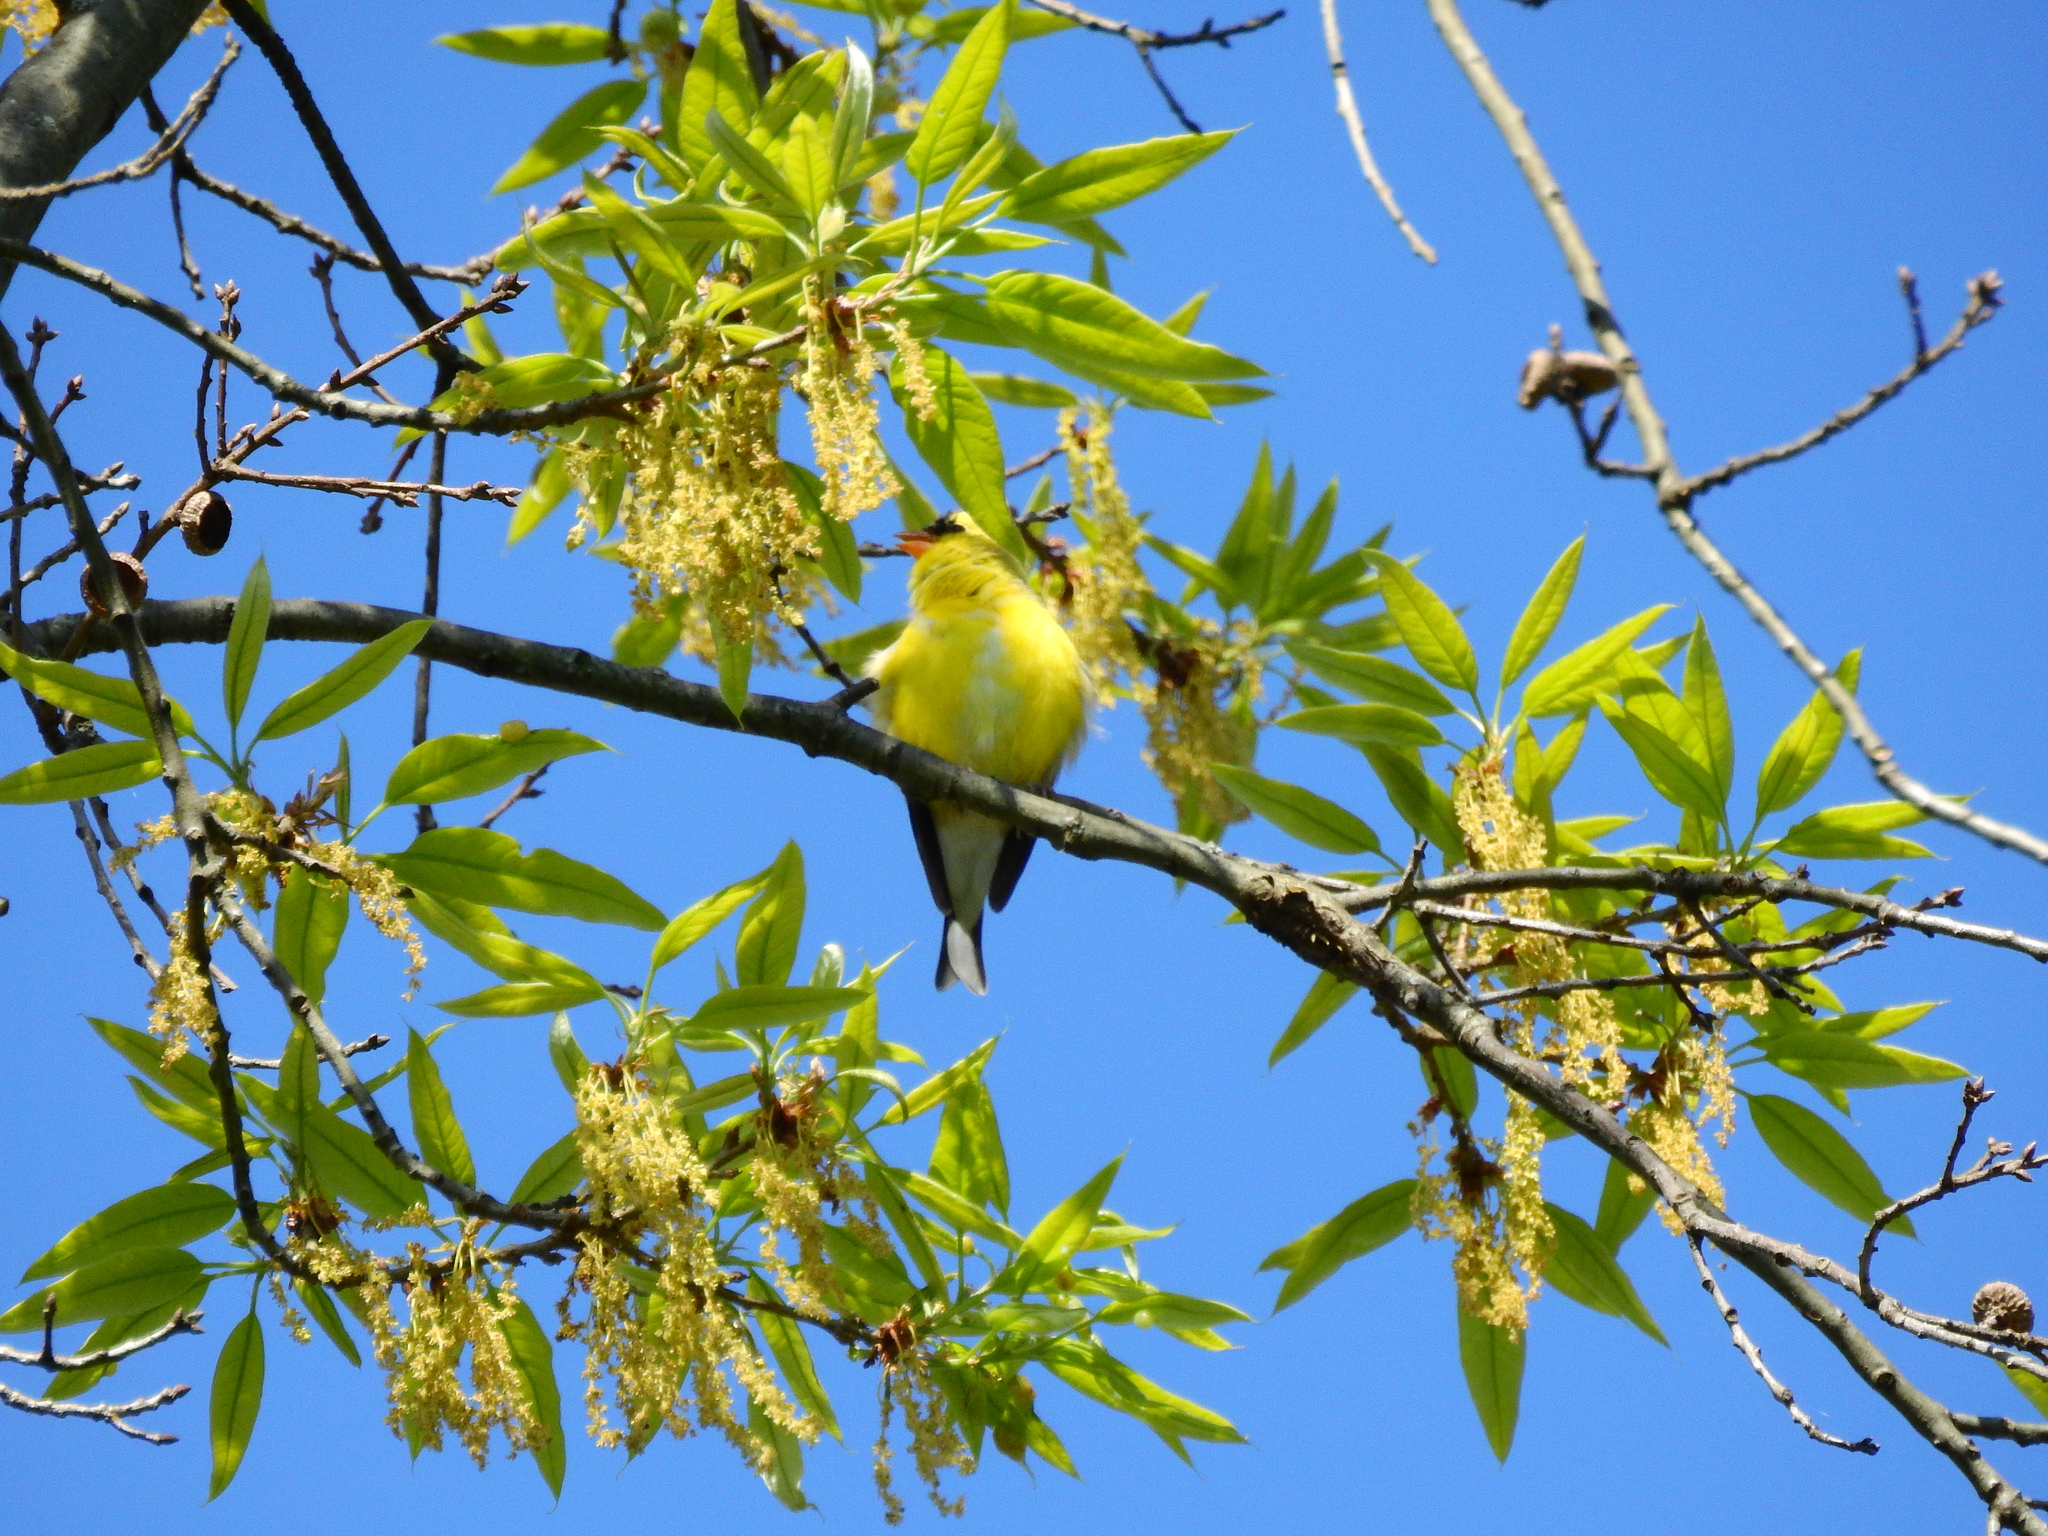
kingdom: Animalia
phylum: Chordata
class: Aves
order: Passeriformes
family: Fringillidae
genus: Spinus
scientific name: Spinus tristis
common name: American goldfinch
